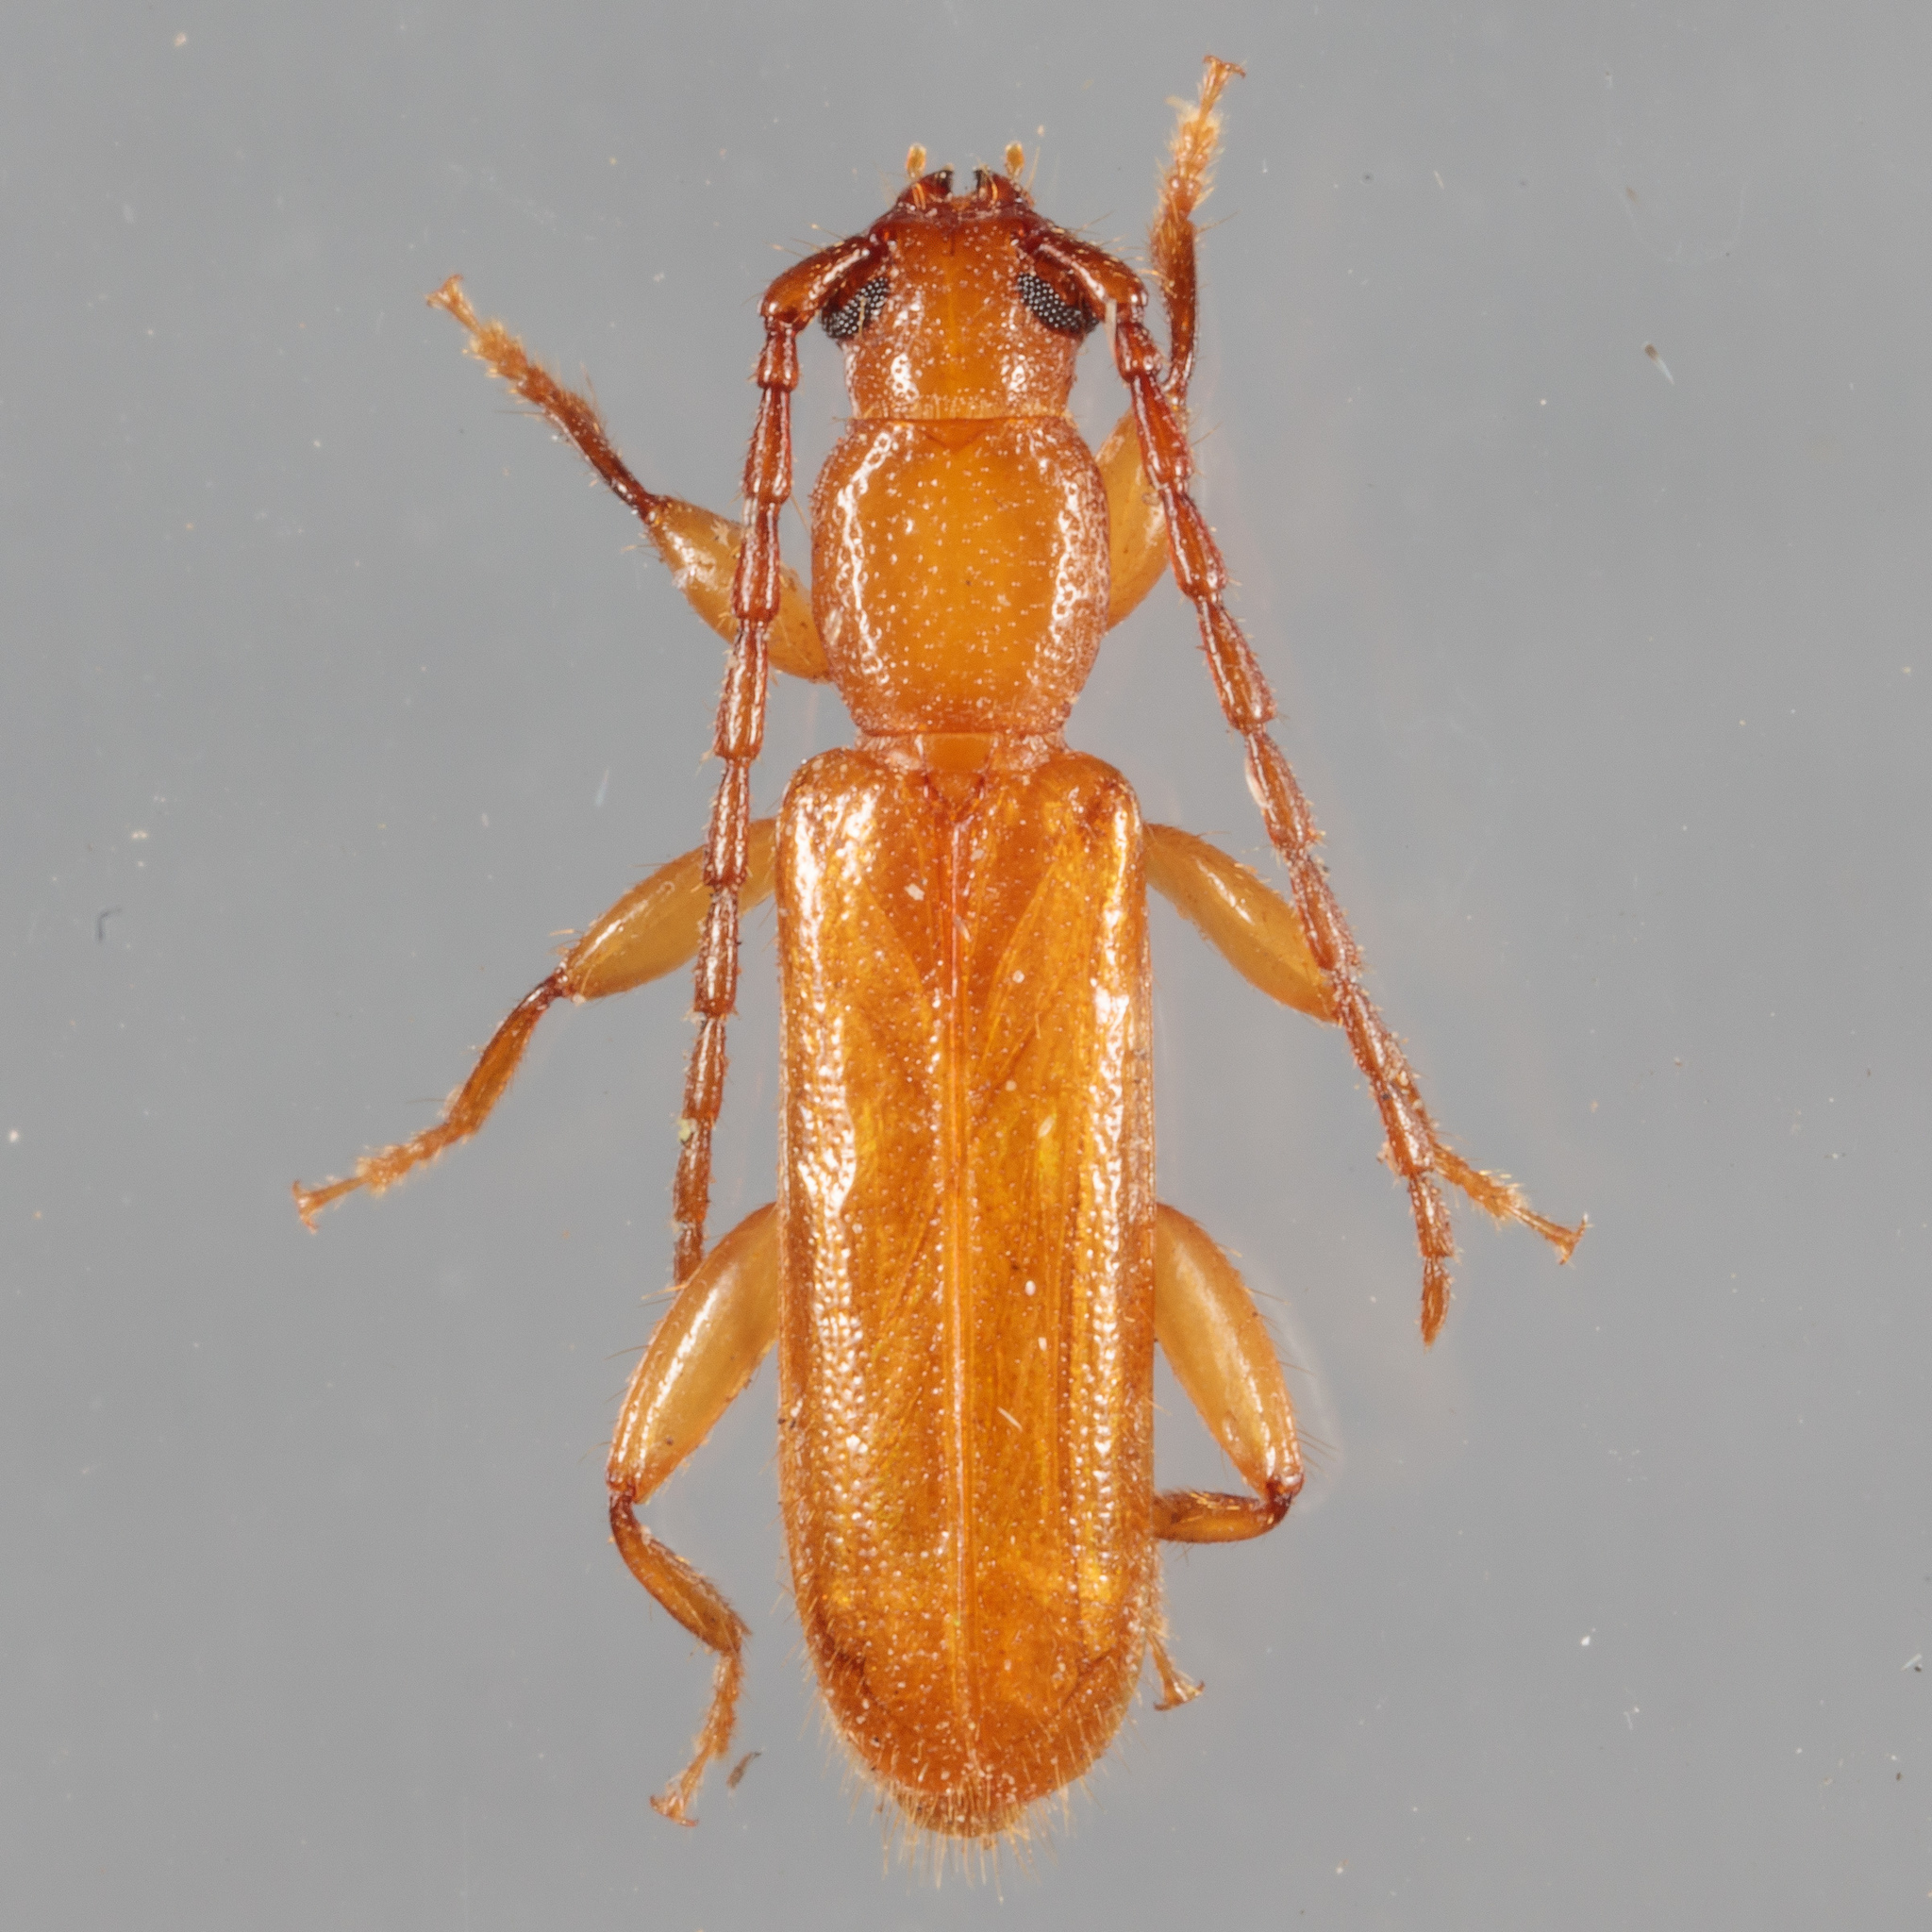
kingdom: Animalia
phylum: Arthropoda
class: Insecta
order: Coleoptera
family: Cerambycidae
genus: Smodicum
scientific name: Smodicum cucujiforme
